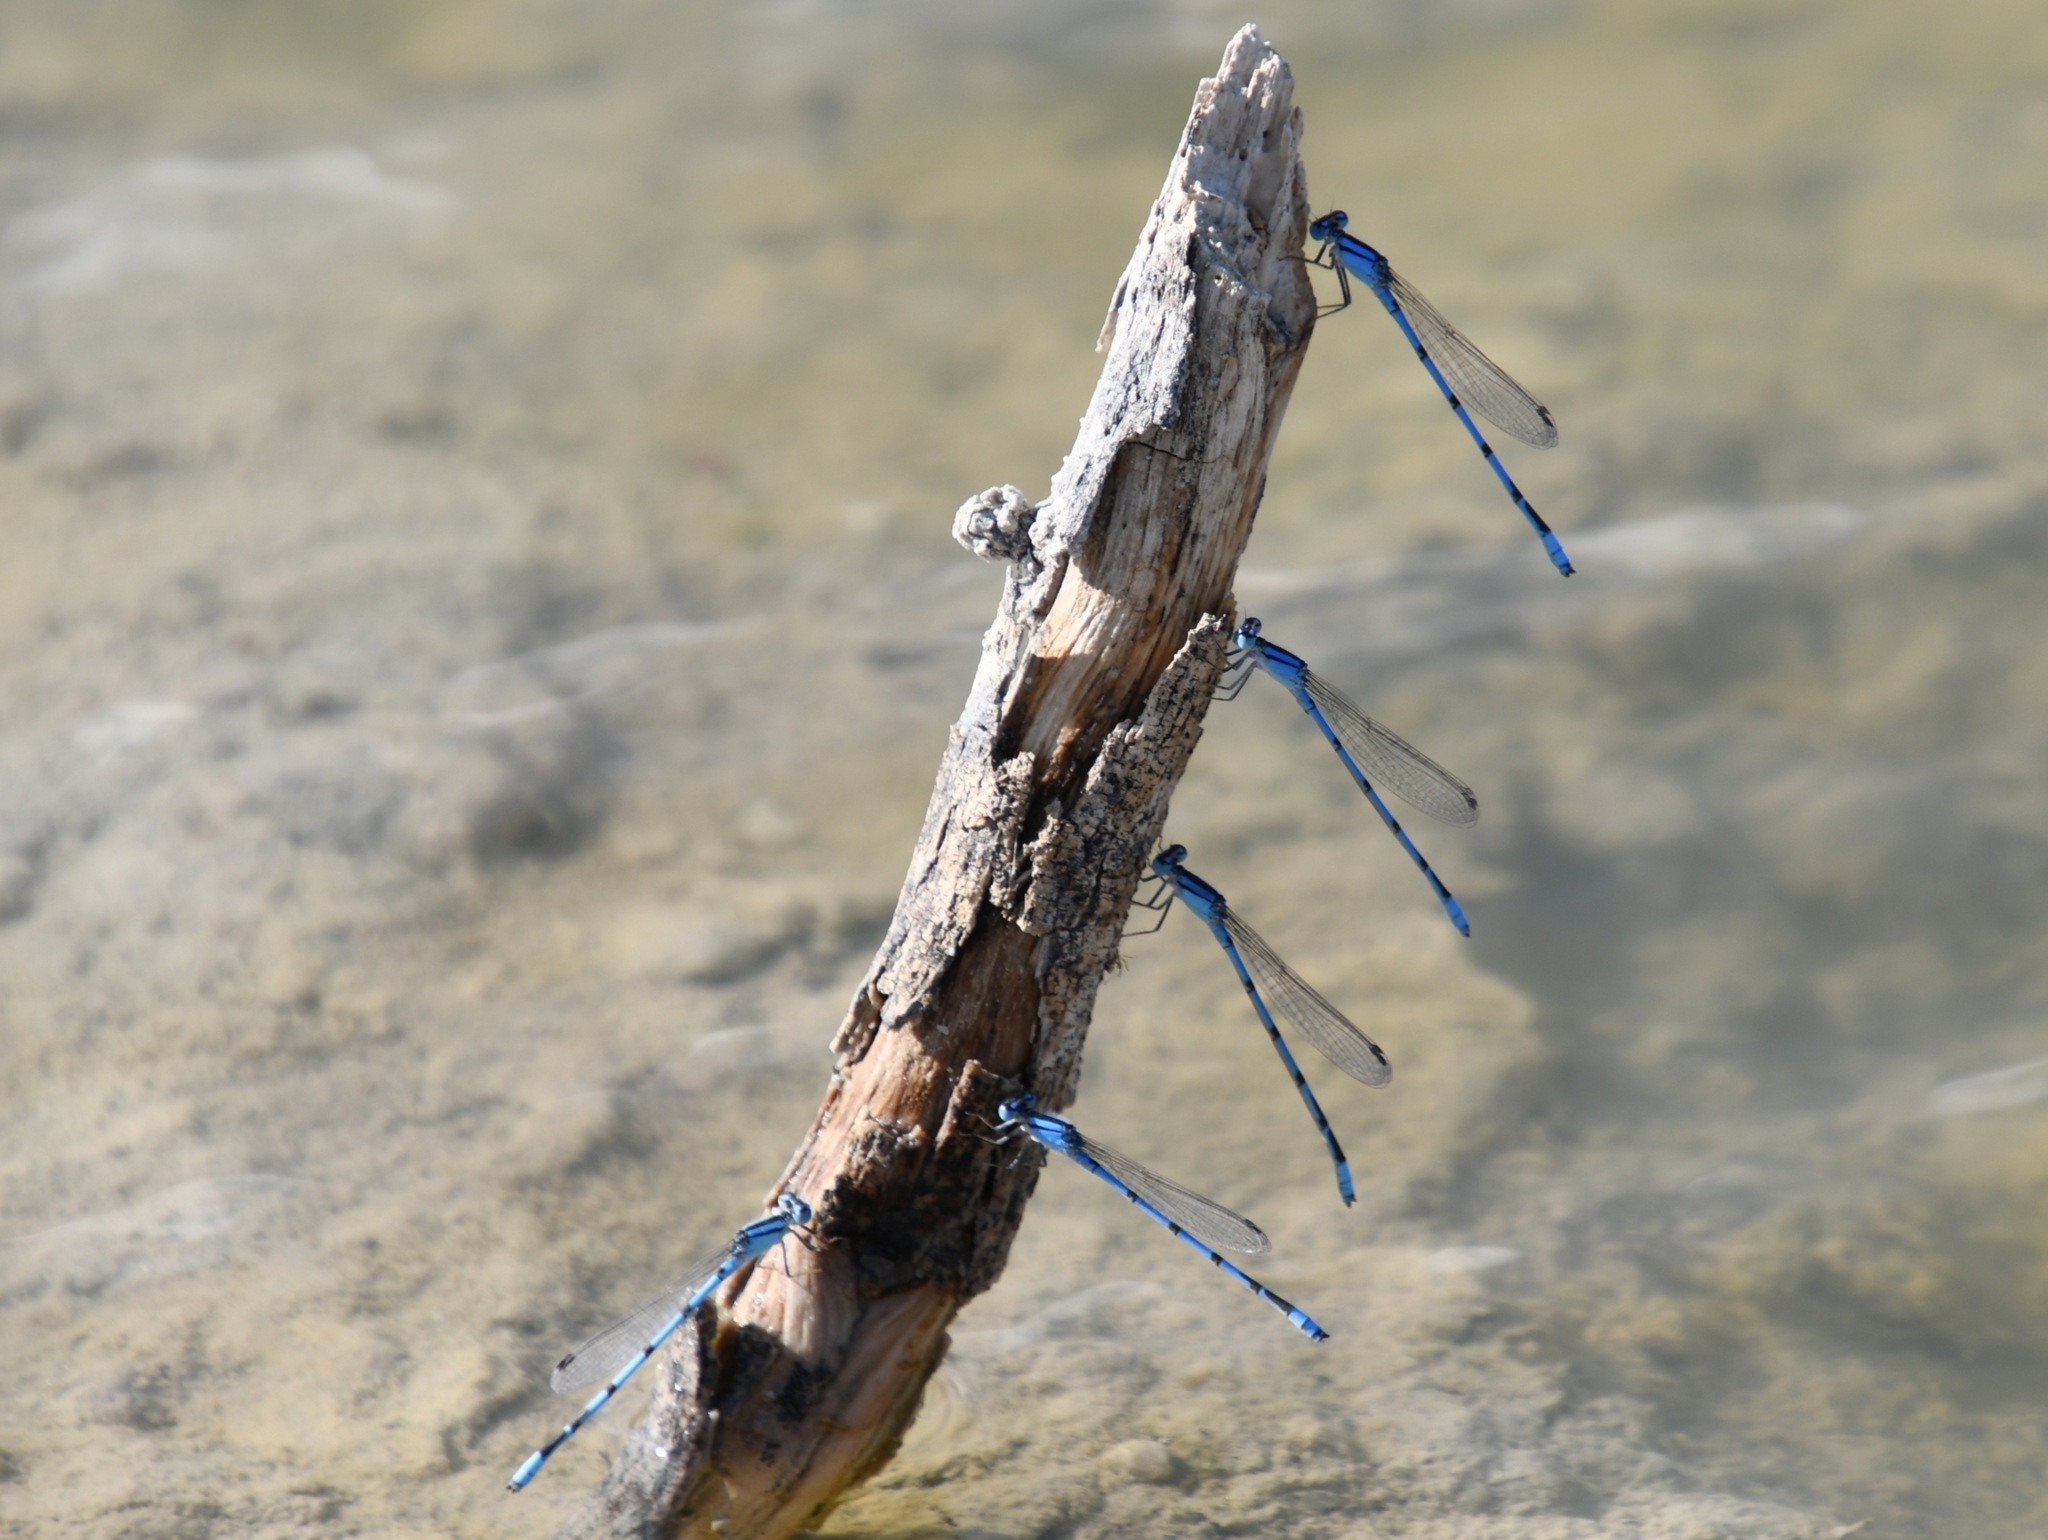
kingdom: Animalia
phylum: Arthropoda
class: Insecta
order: Odonata
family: Coenagrionidae
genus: Enallagma
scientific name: Enallagma civile
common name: Damselfly
